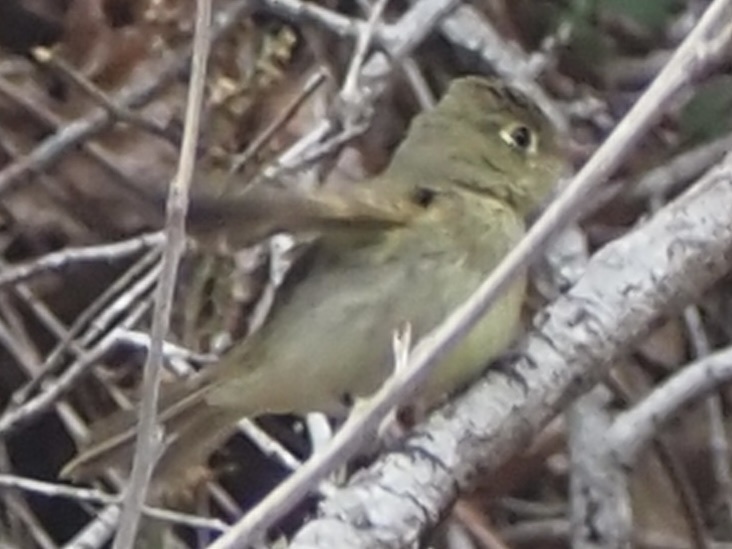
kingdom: Animalia
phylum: Chordata
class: Aves
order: Passeriformes
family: Tyrannidae
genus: Empidonax
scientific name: Empidonax difficilis
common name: Pacific-slope flycatcher
